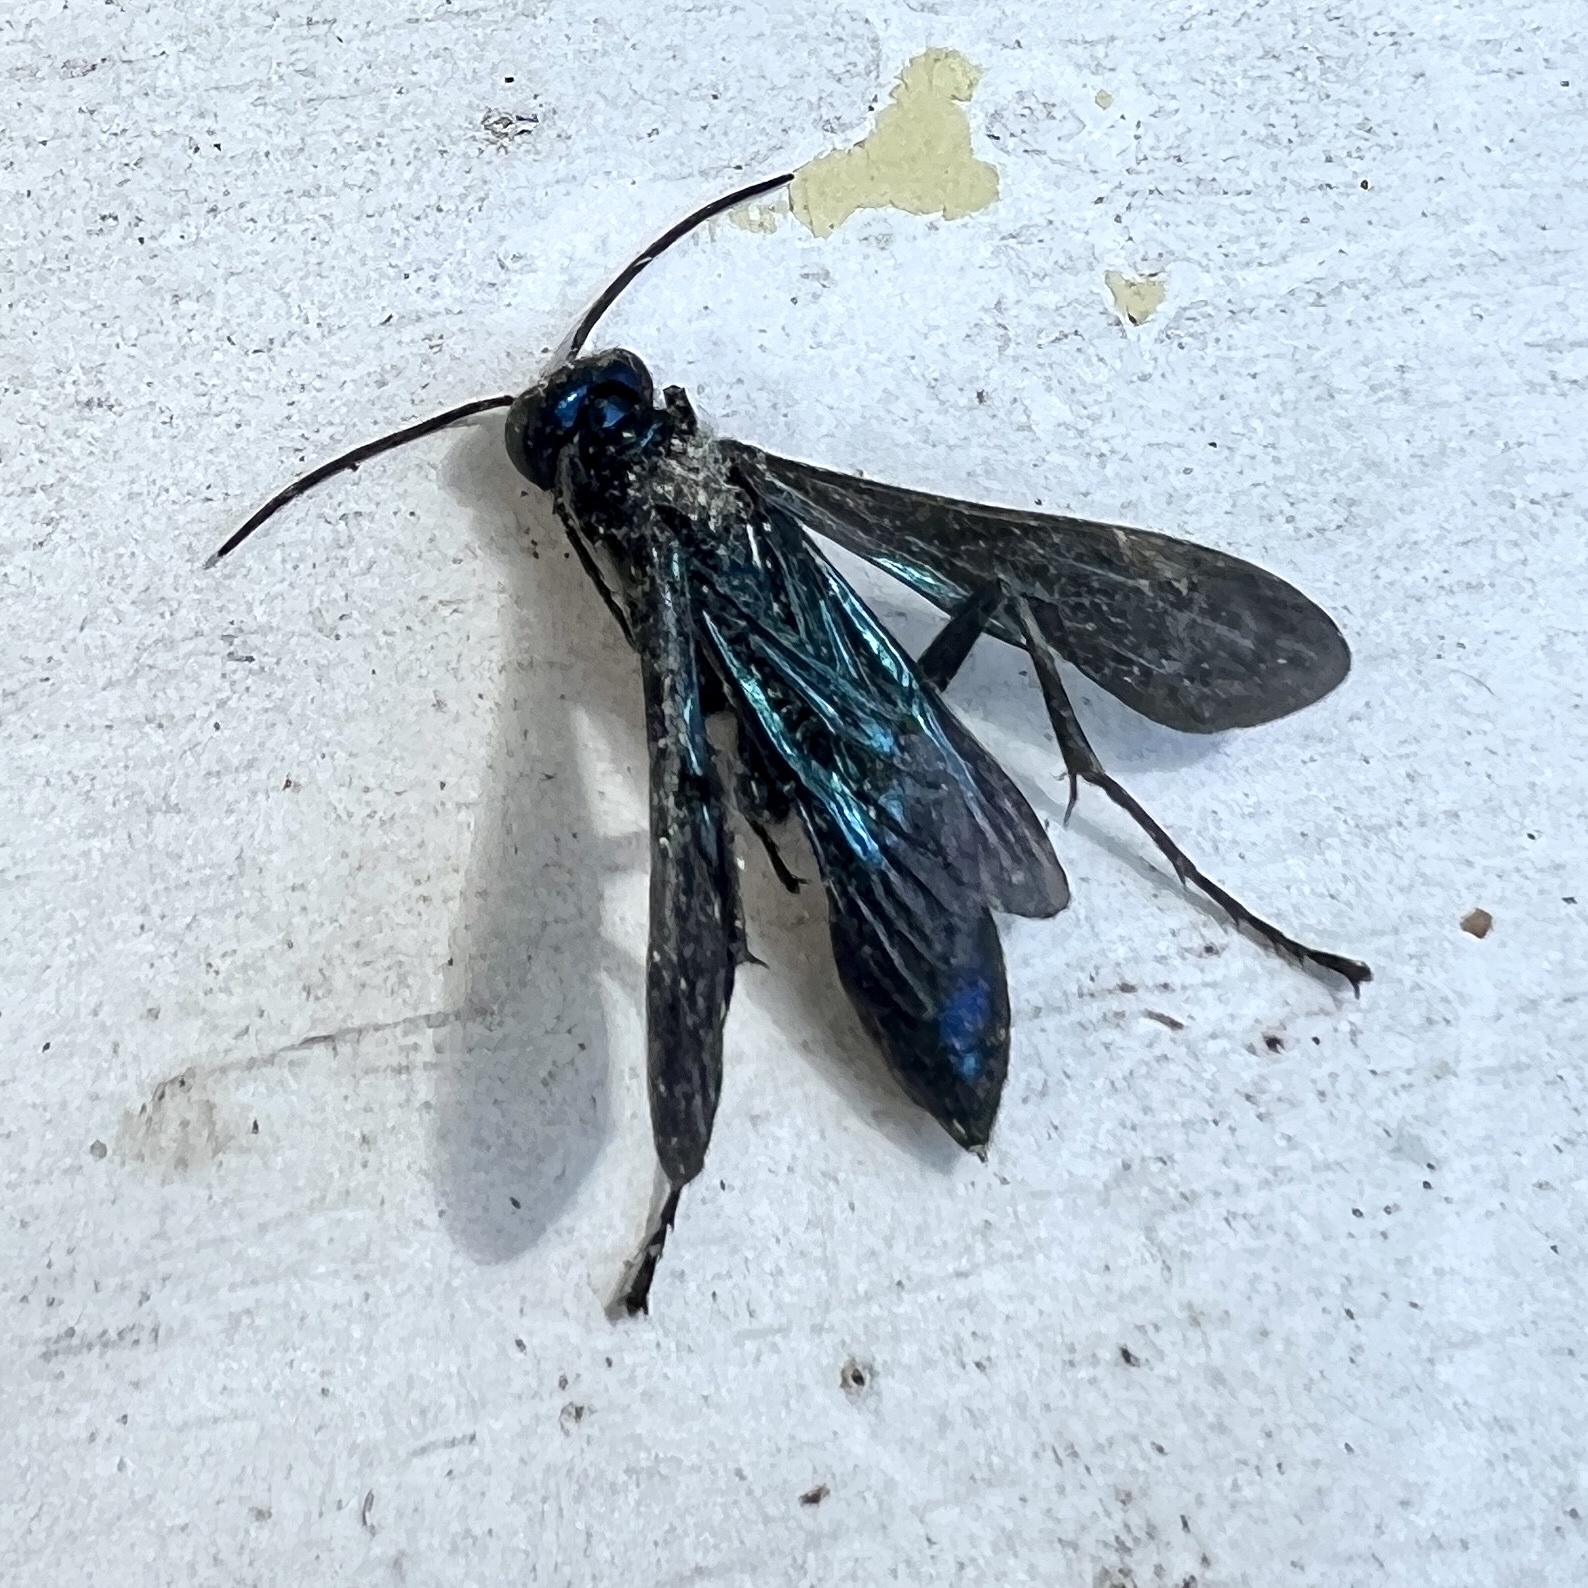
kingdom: Animalia
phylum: Arthropoda
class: Insecta
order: Hymenoptera
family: Sphecidae
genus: Chalybion
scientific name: Chalybion californicum
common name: Mud dauber
